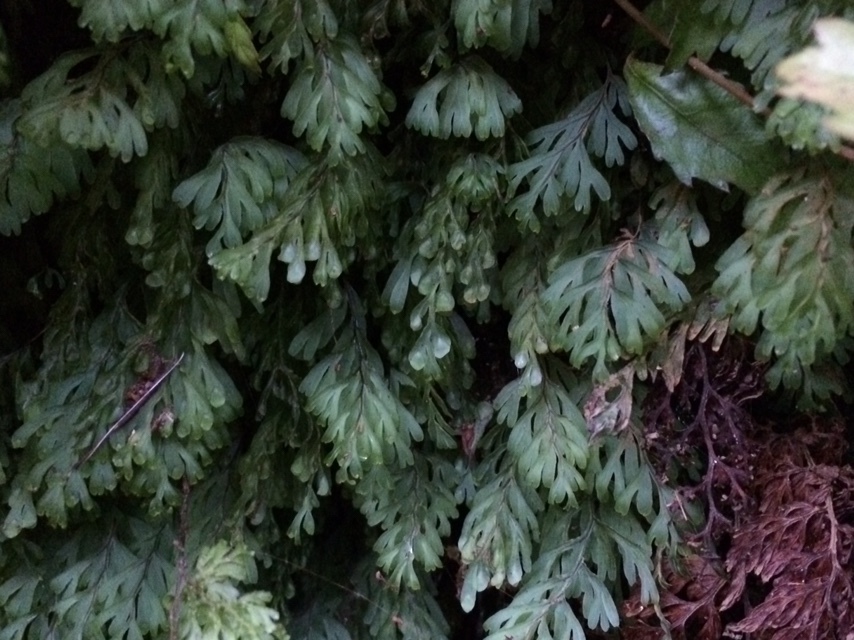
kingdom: Plantae
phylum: Tracheophyta
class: Polypodiopsida
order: Hymenophyllales
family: Hymenophyllaceae
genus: Hymenophyllum
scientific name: Hymenophyllum rarum
